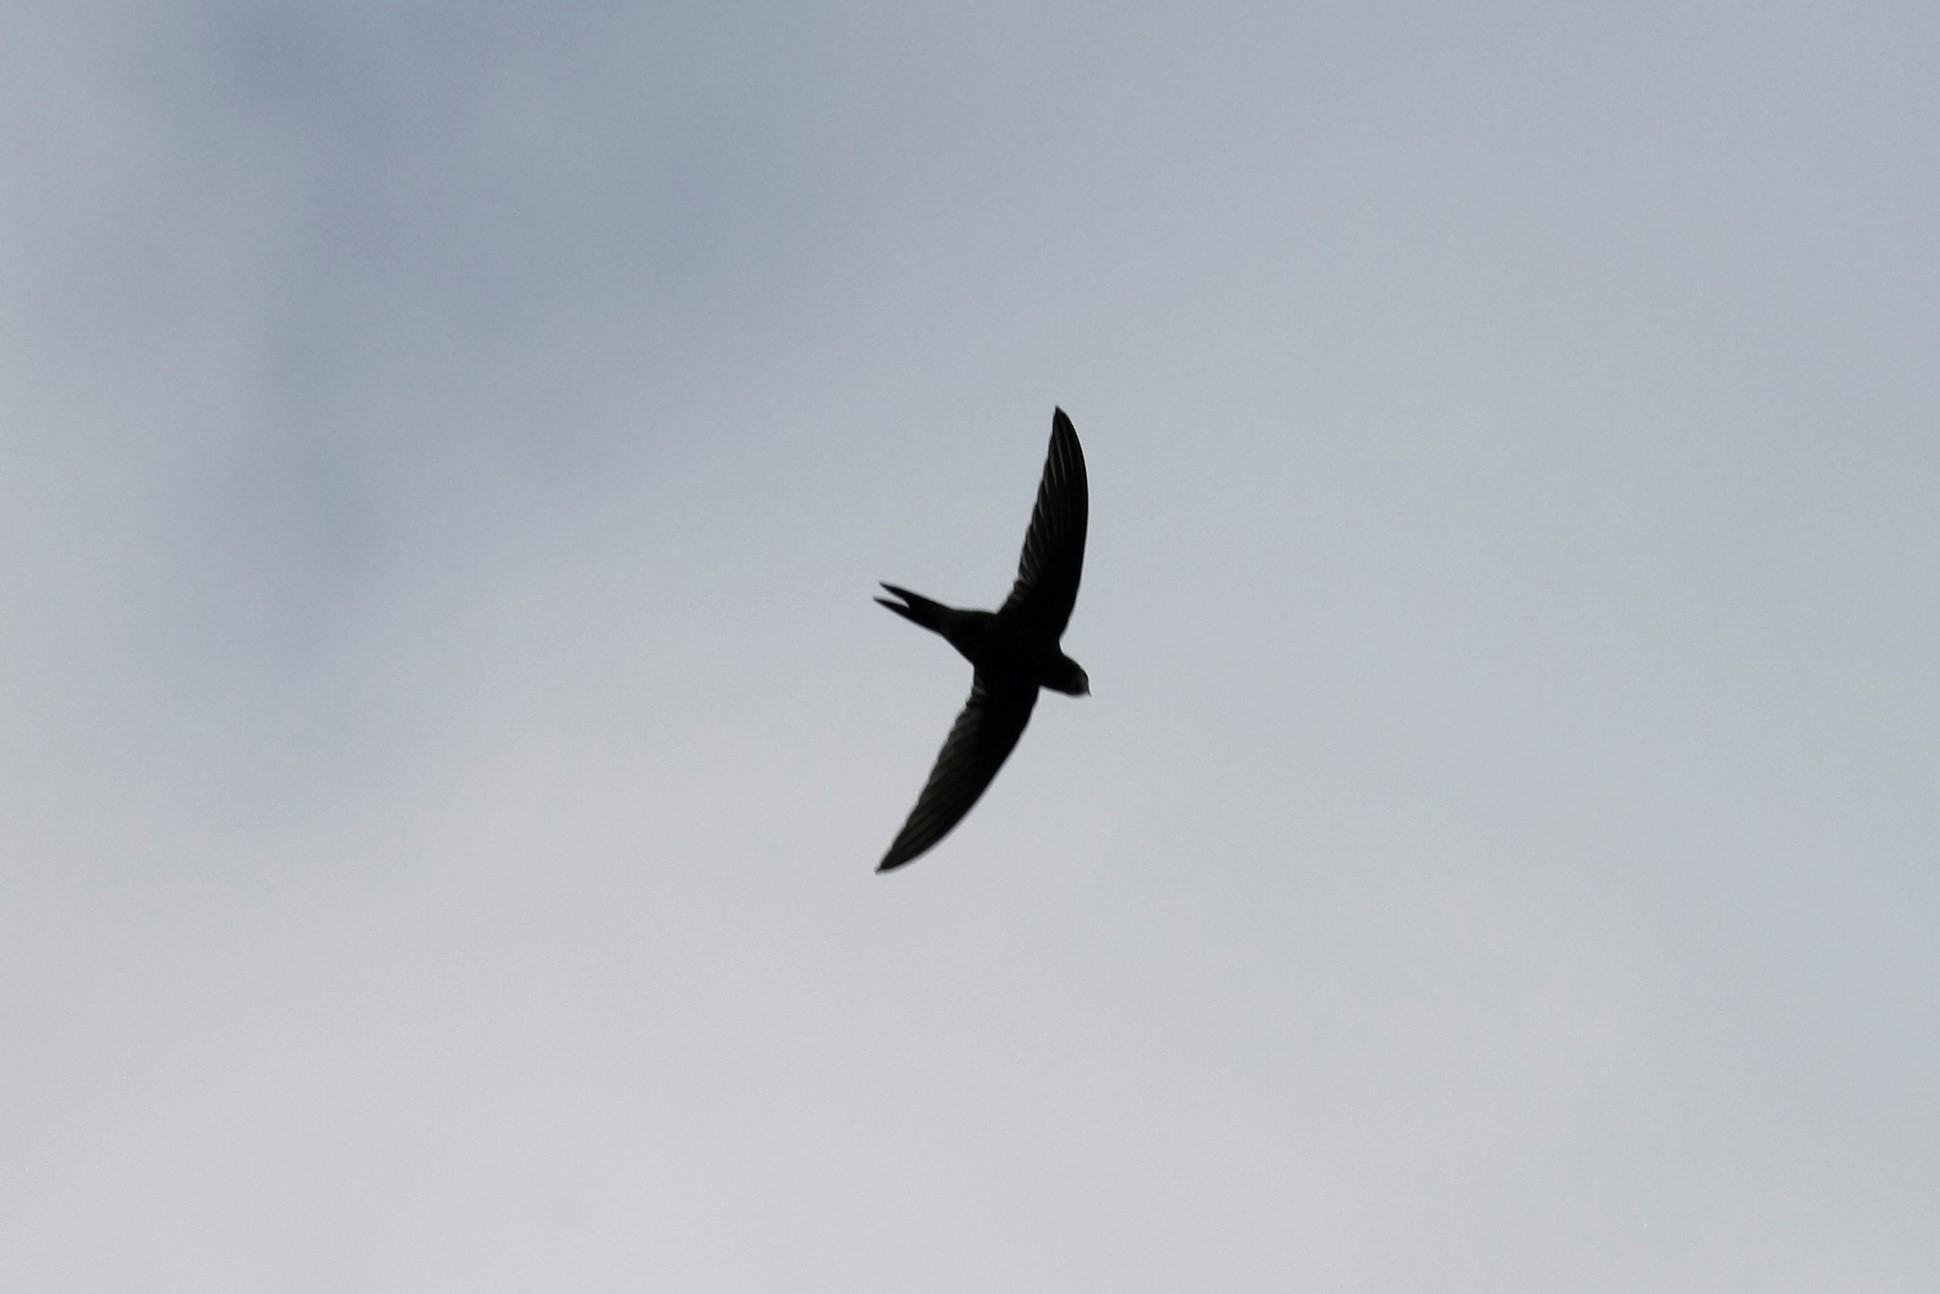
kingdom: Animalia
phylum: Chordata
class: Aves
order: Apodiformes
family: Apodidae
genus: Apus
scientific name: Apus apus
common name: Common swift
